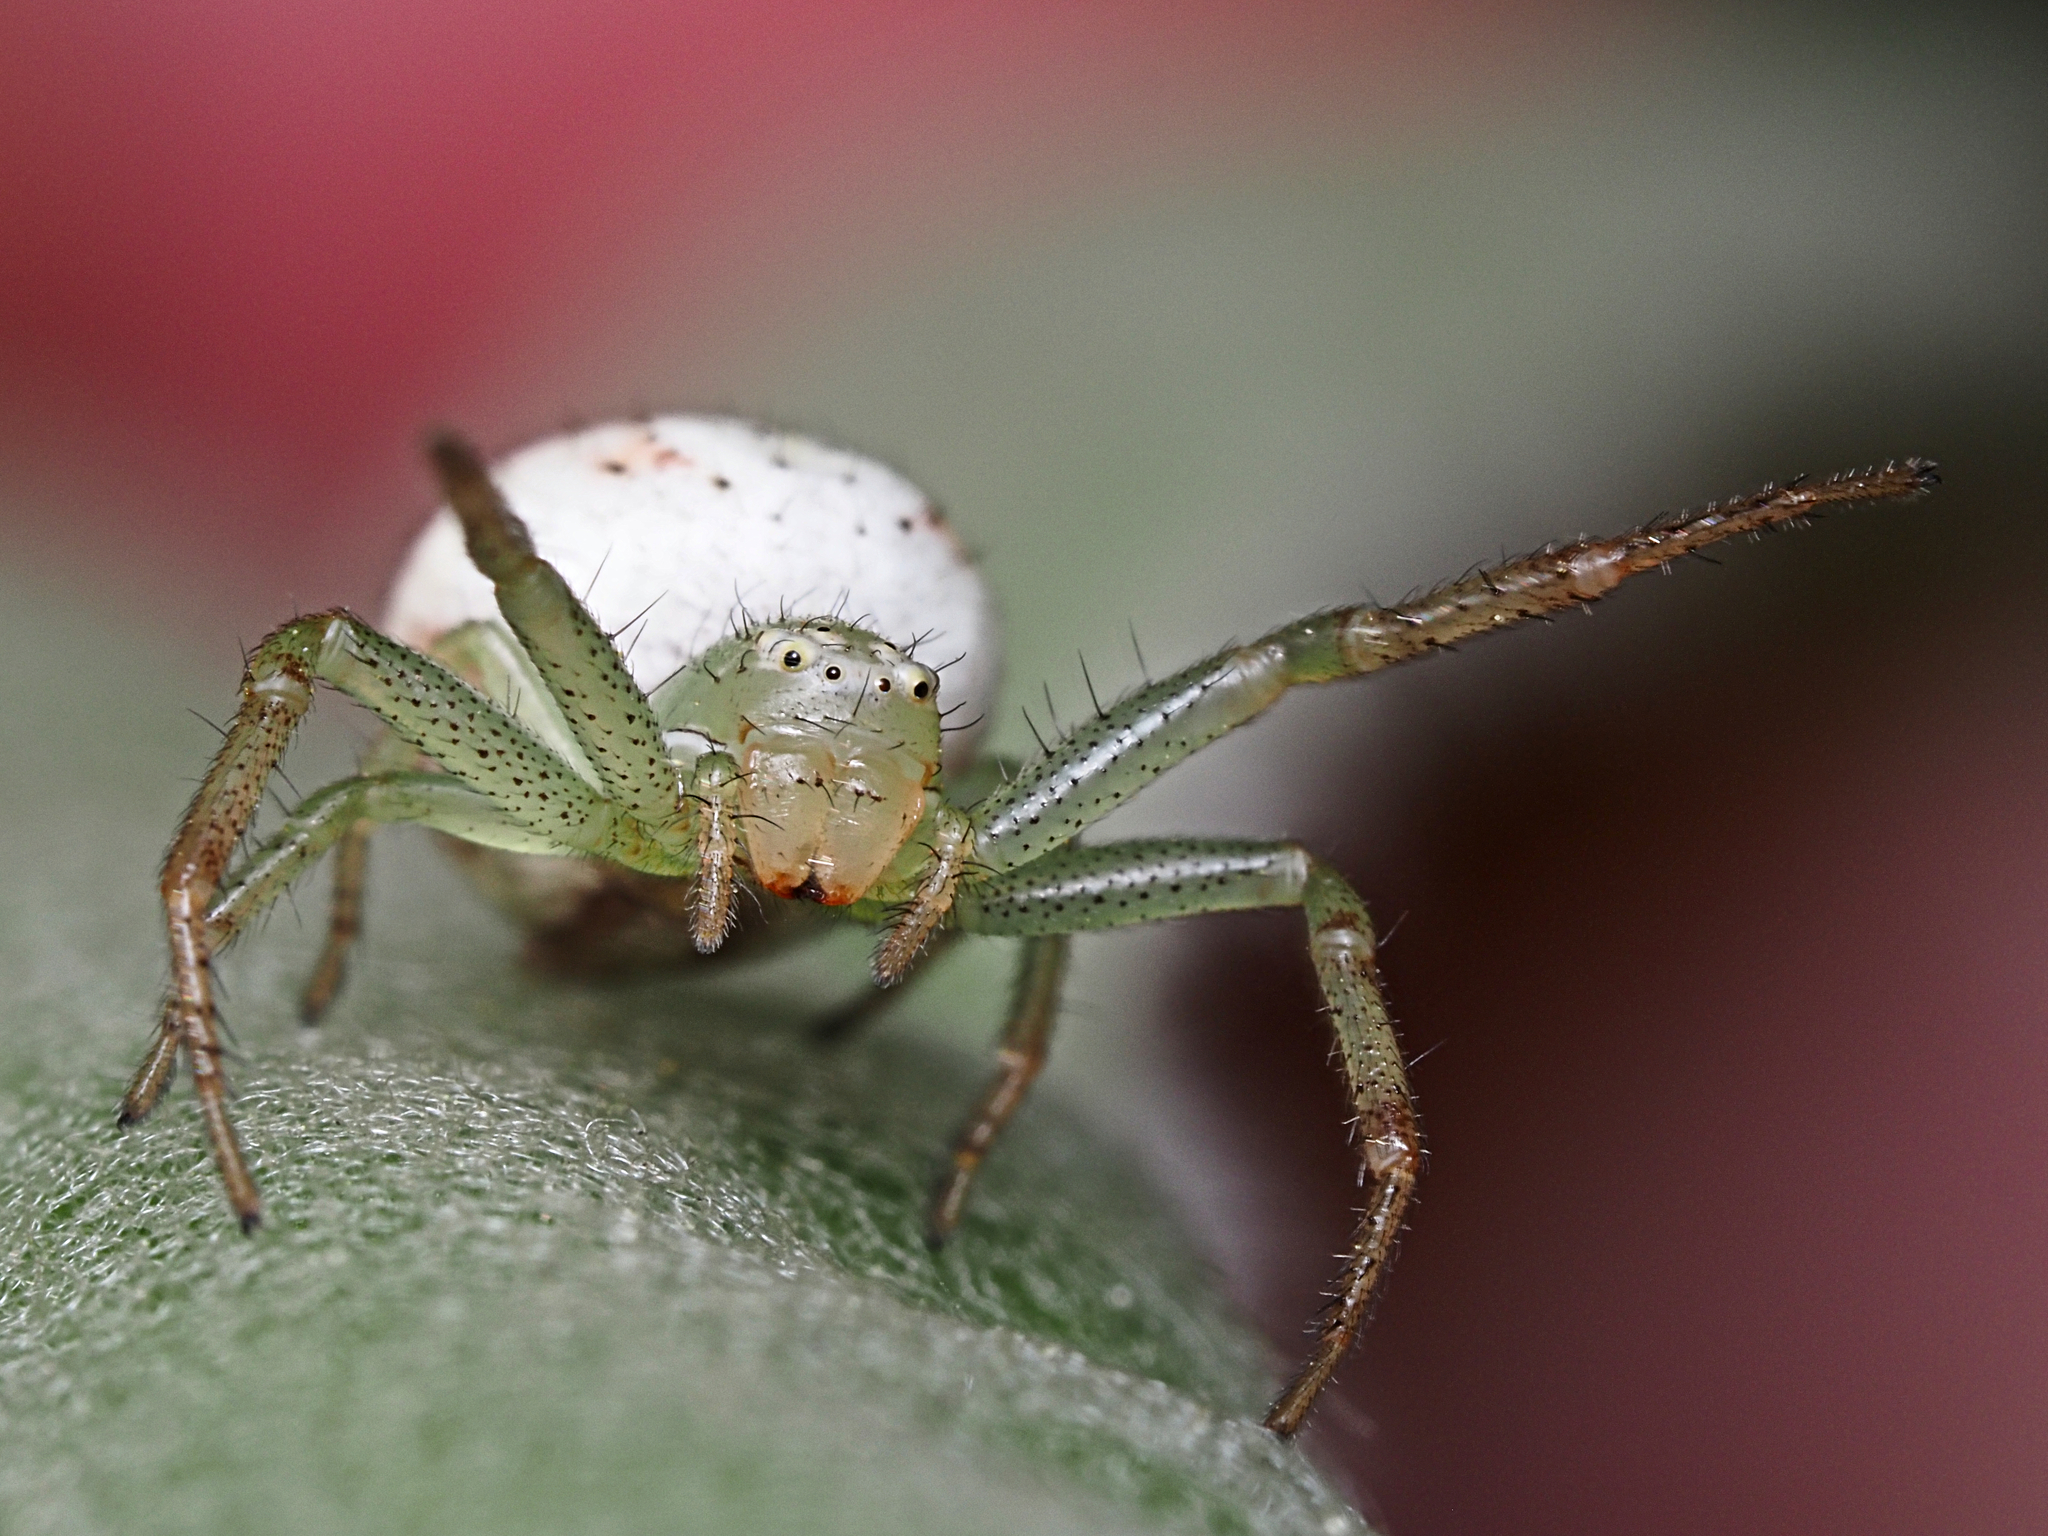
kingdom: Animalia
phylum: Arthropoda
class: Arachnida
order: Araneae
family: Thomisidae
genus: Australomisidia
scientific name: Australomisidia pilula
